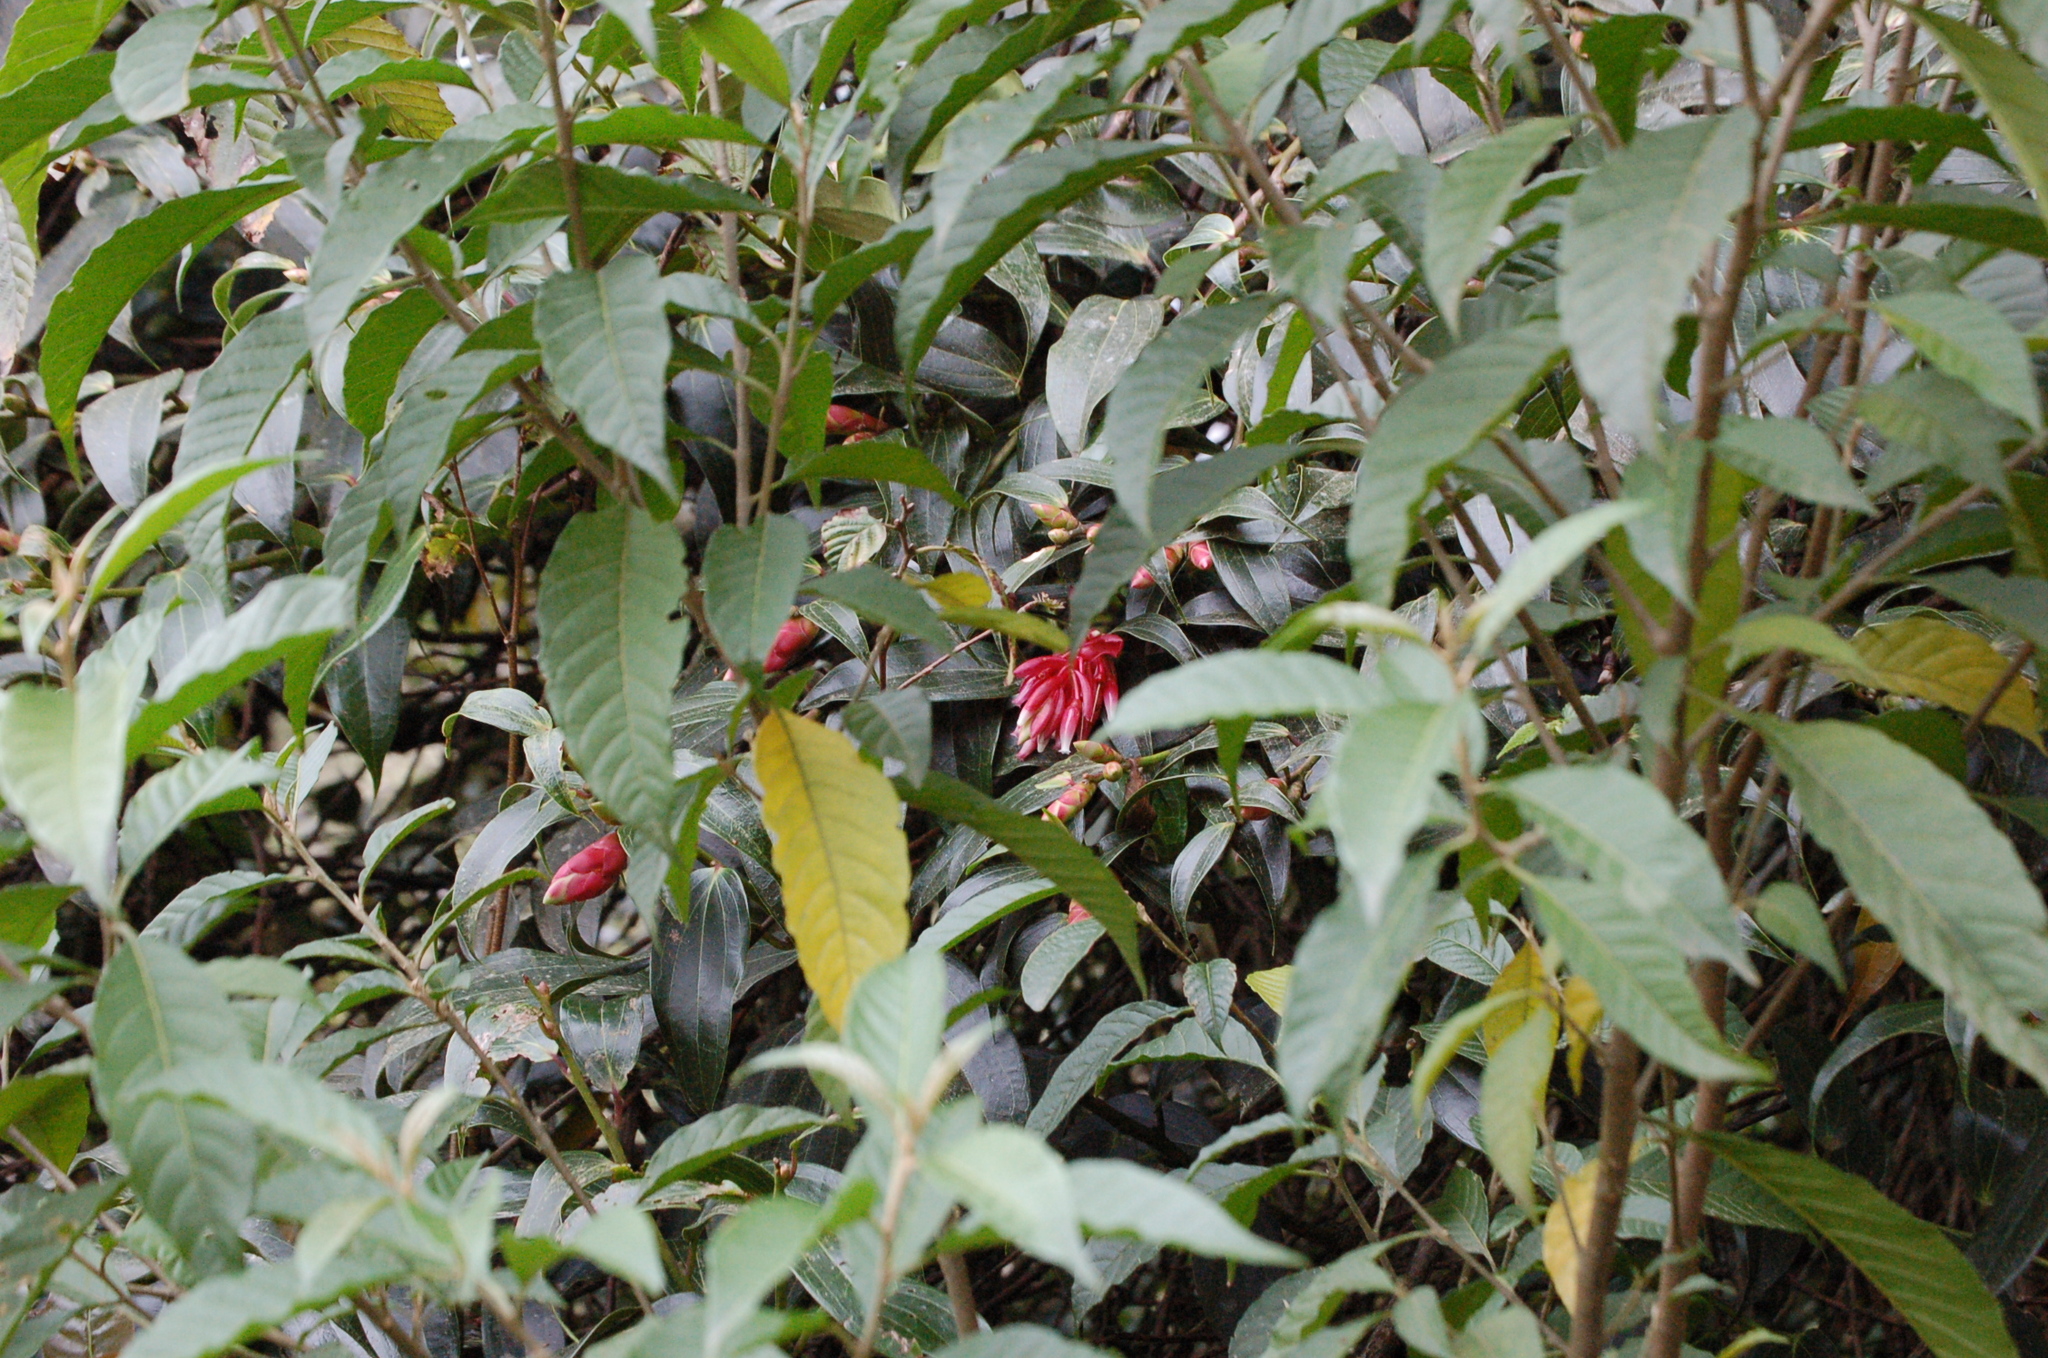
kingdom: Plantae
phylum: Tracheophyta
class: Magnoliopsida
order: Ericales
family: Ericaceae
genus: Cavendishia
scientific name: Cavendishia bracteata
